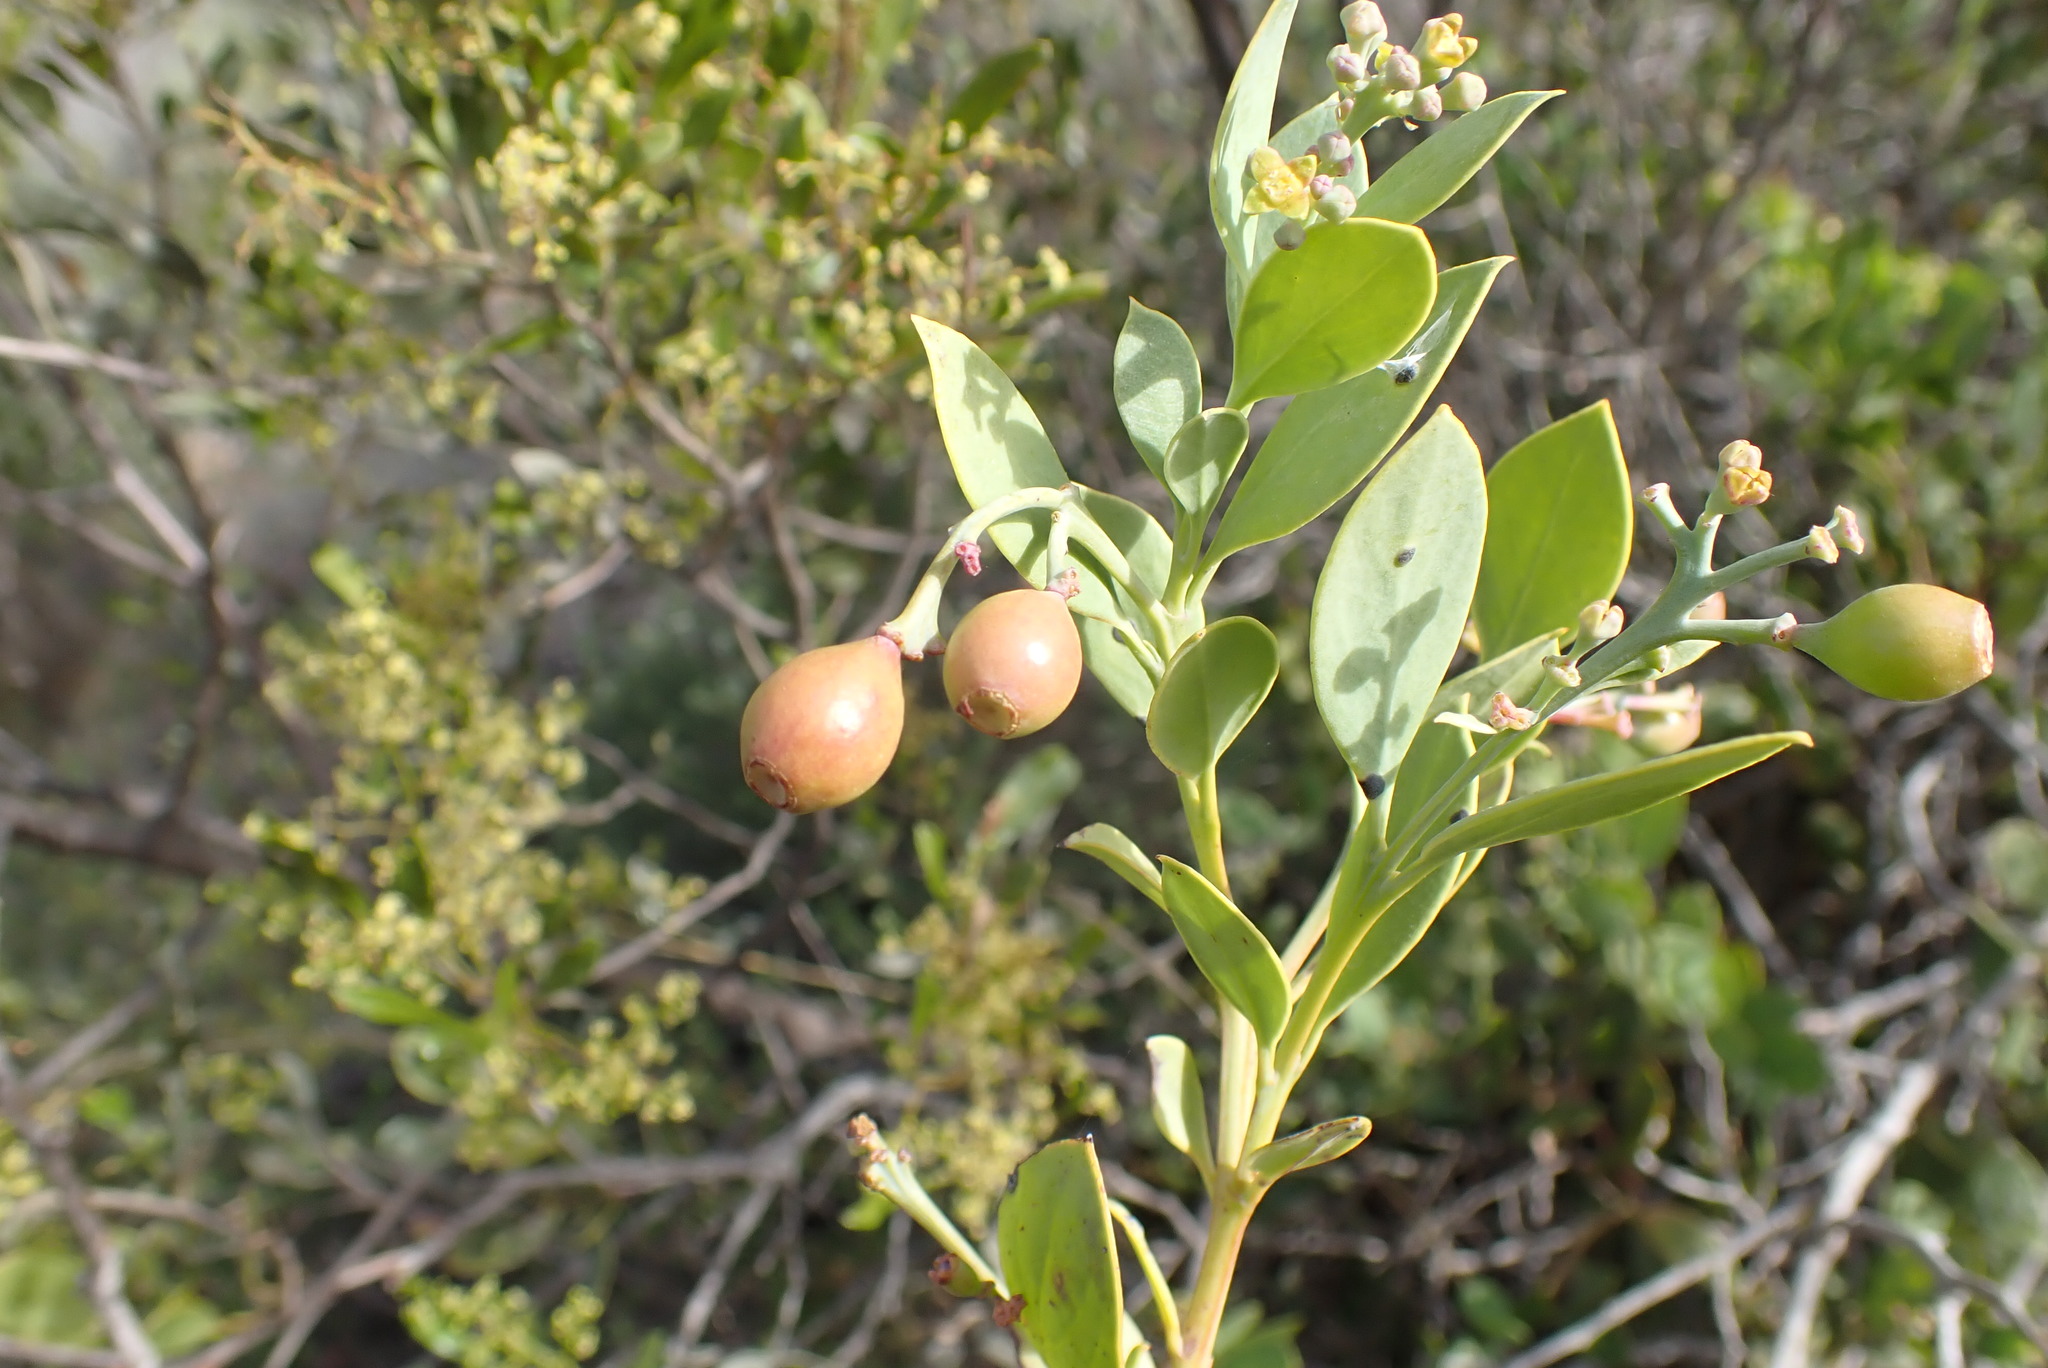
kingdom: Plantae
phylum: Tracheophyta
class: Magnoliopsida
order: Santalales
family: Santalaceae
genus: Osyris
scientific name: Osyris compressa
